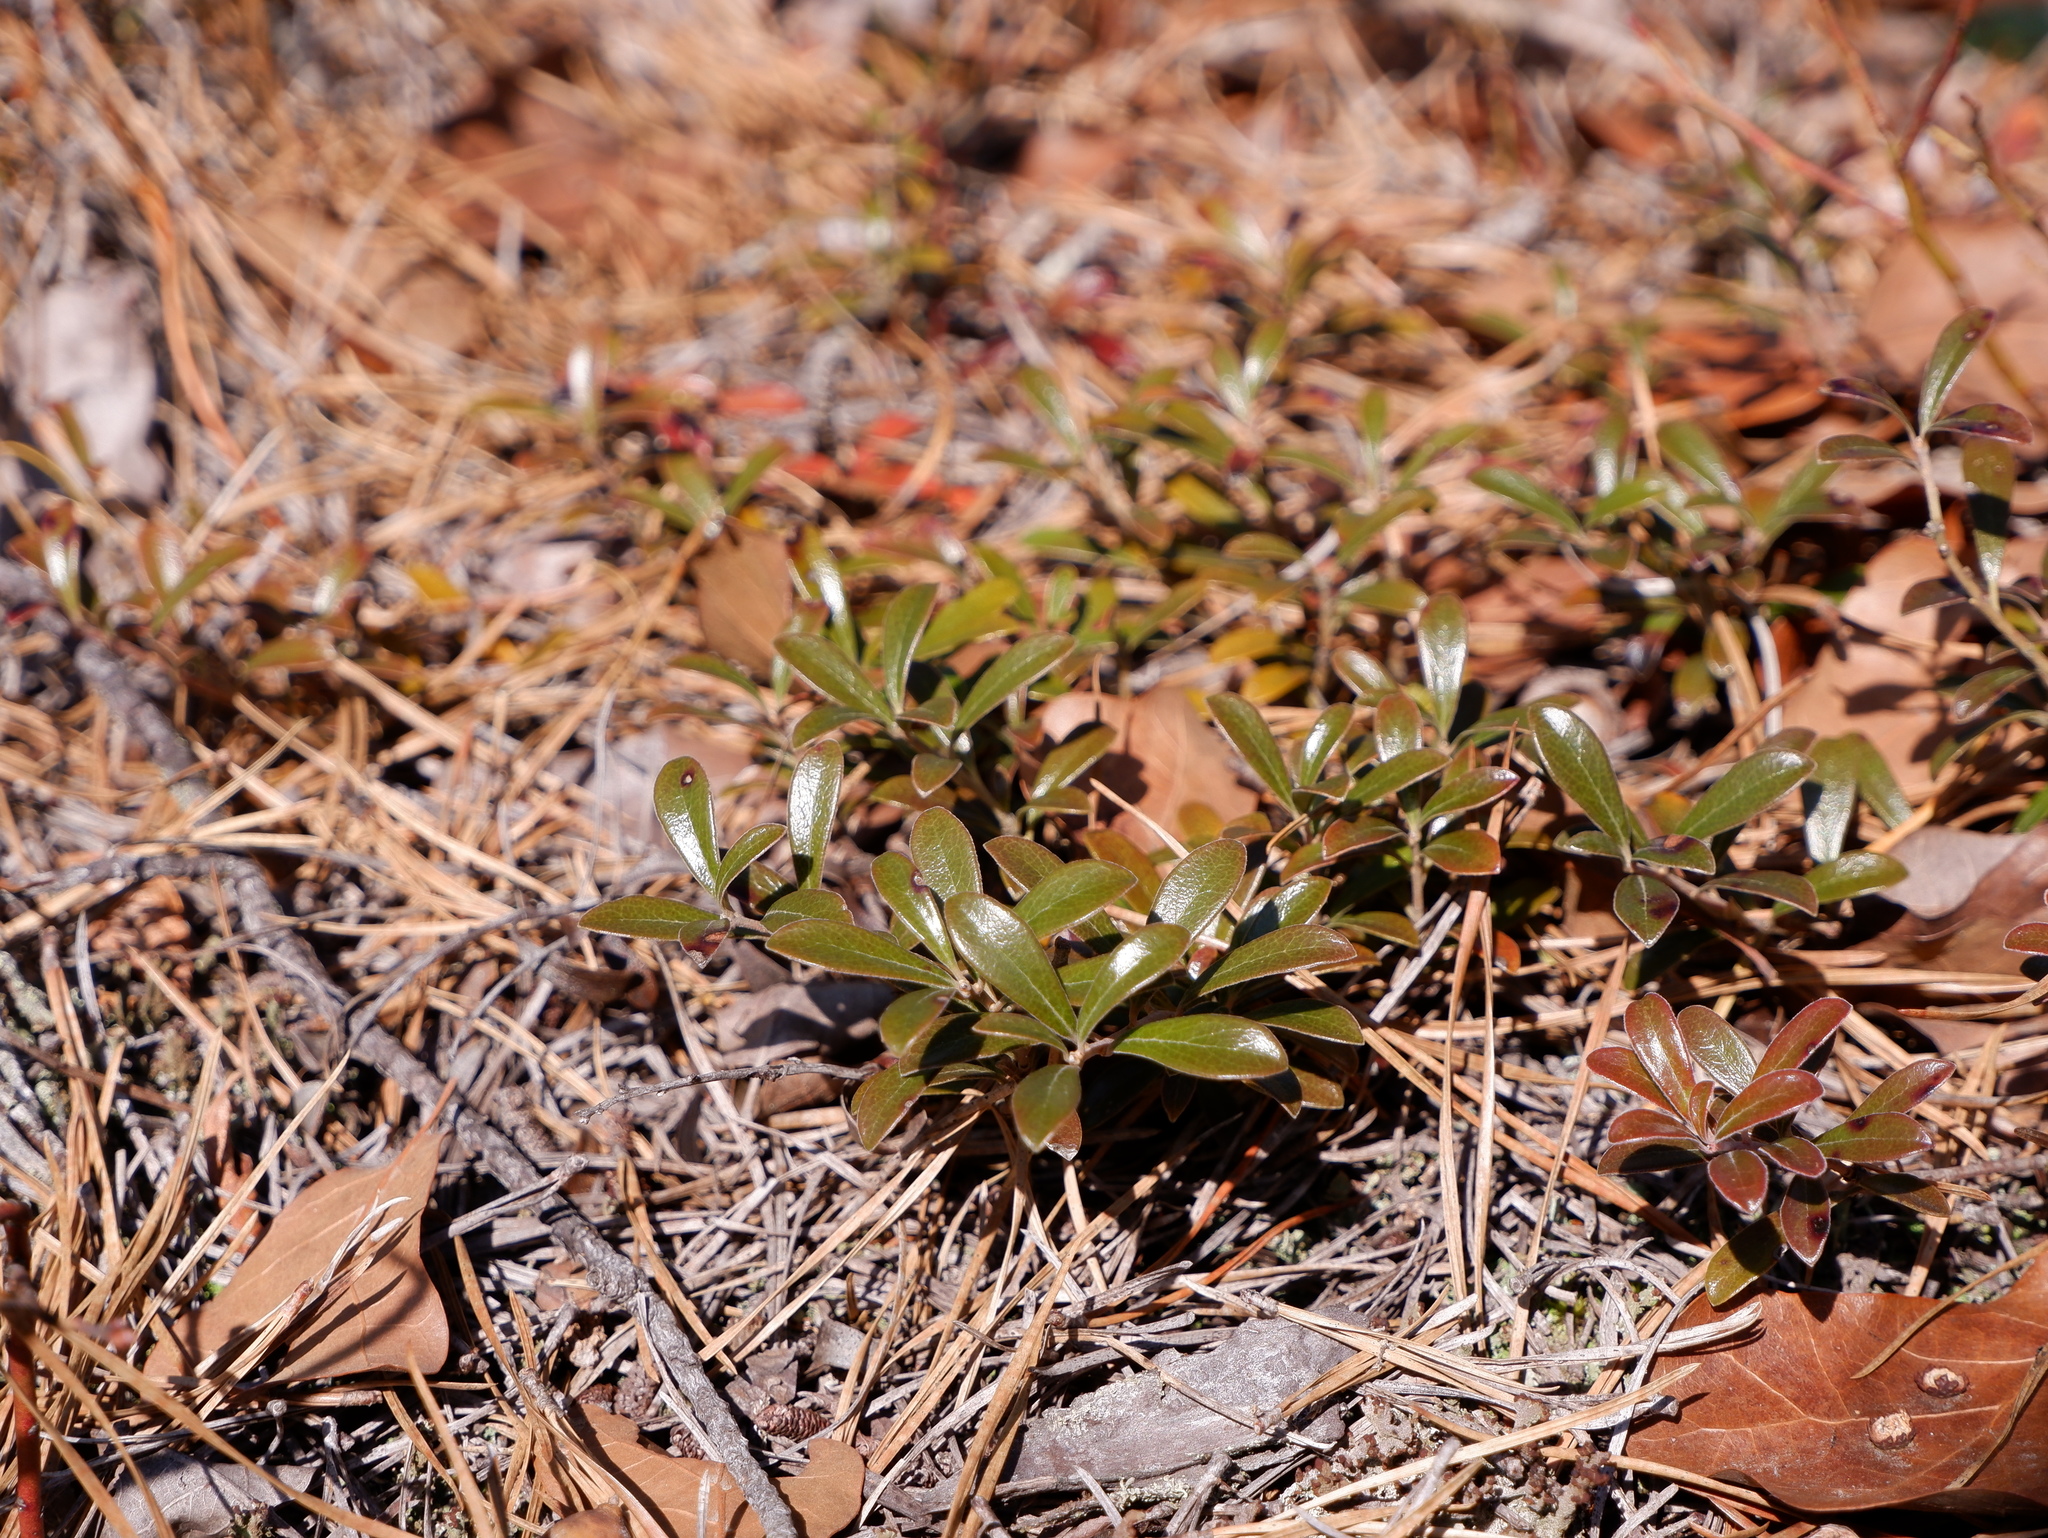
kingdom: Plantae
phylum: Tracheophyta
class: Magnoliopsida
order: Ericales
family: Ericaceae
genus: Arctostaphylos
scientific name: Arctostaphylos uva-ursi
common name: Bearberry
